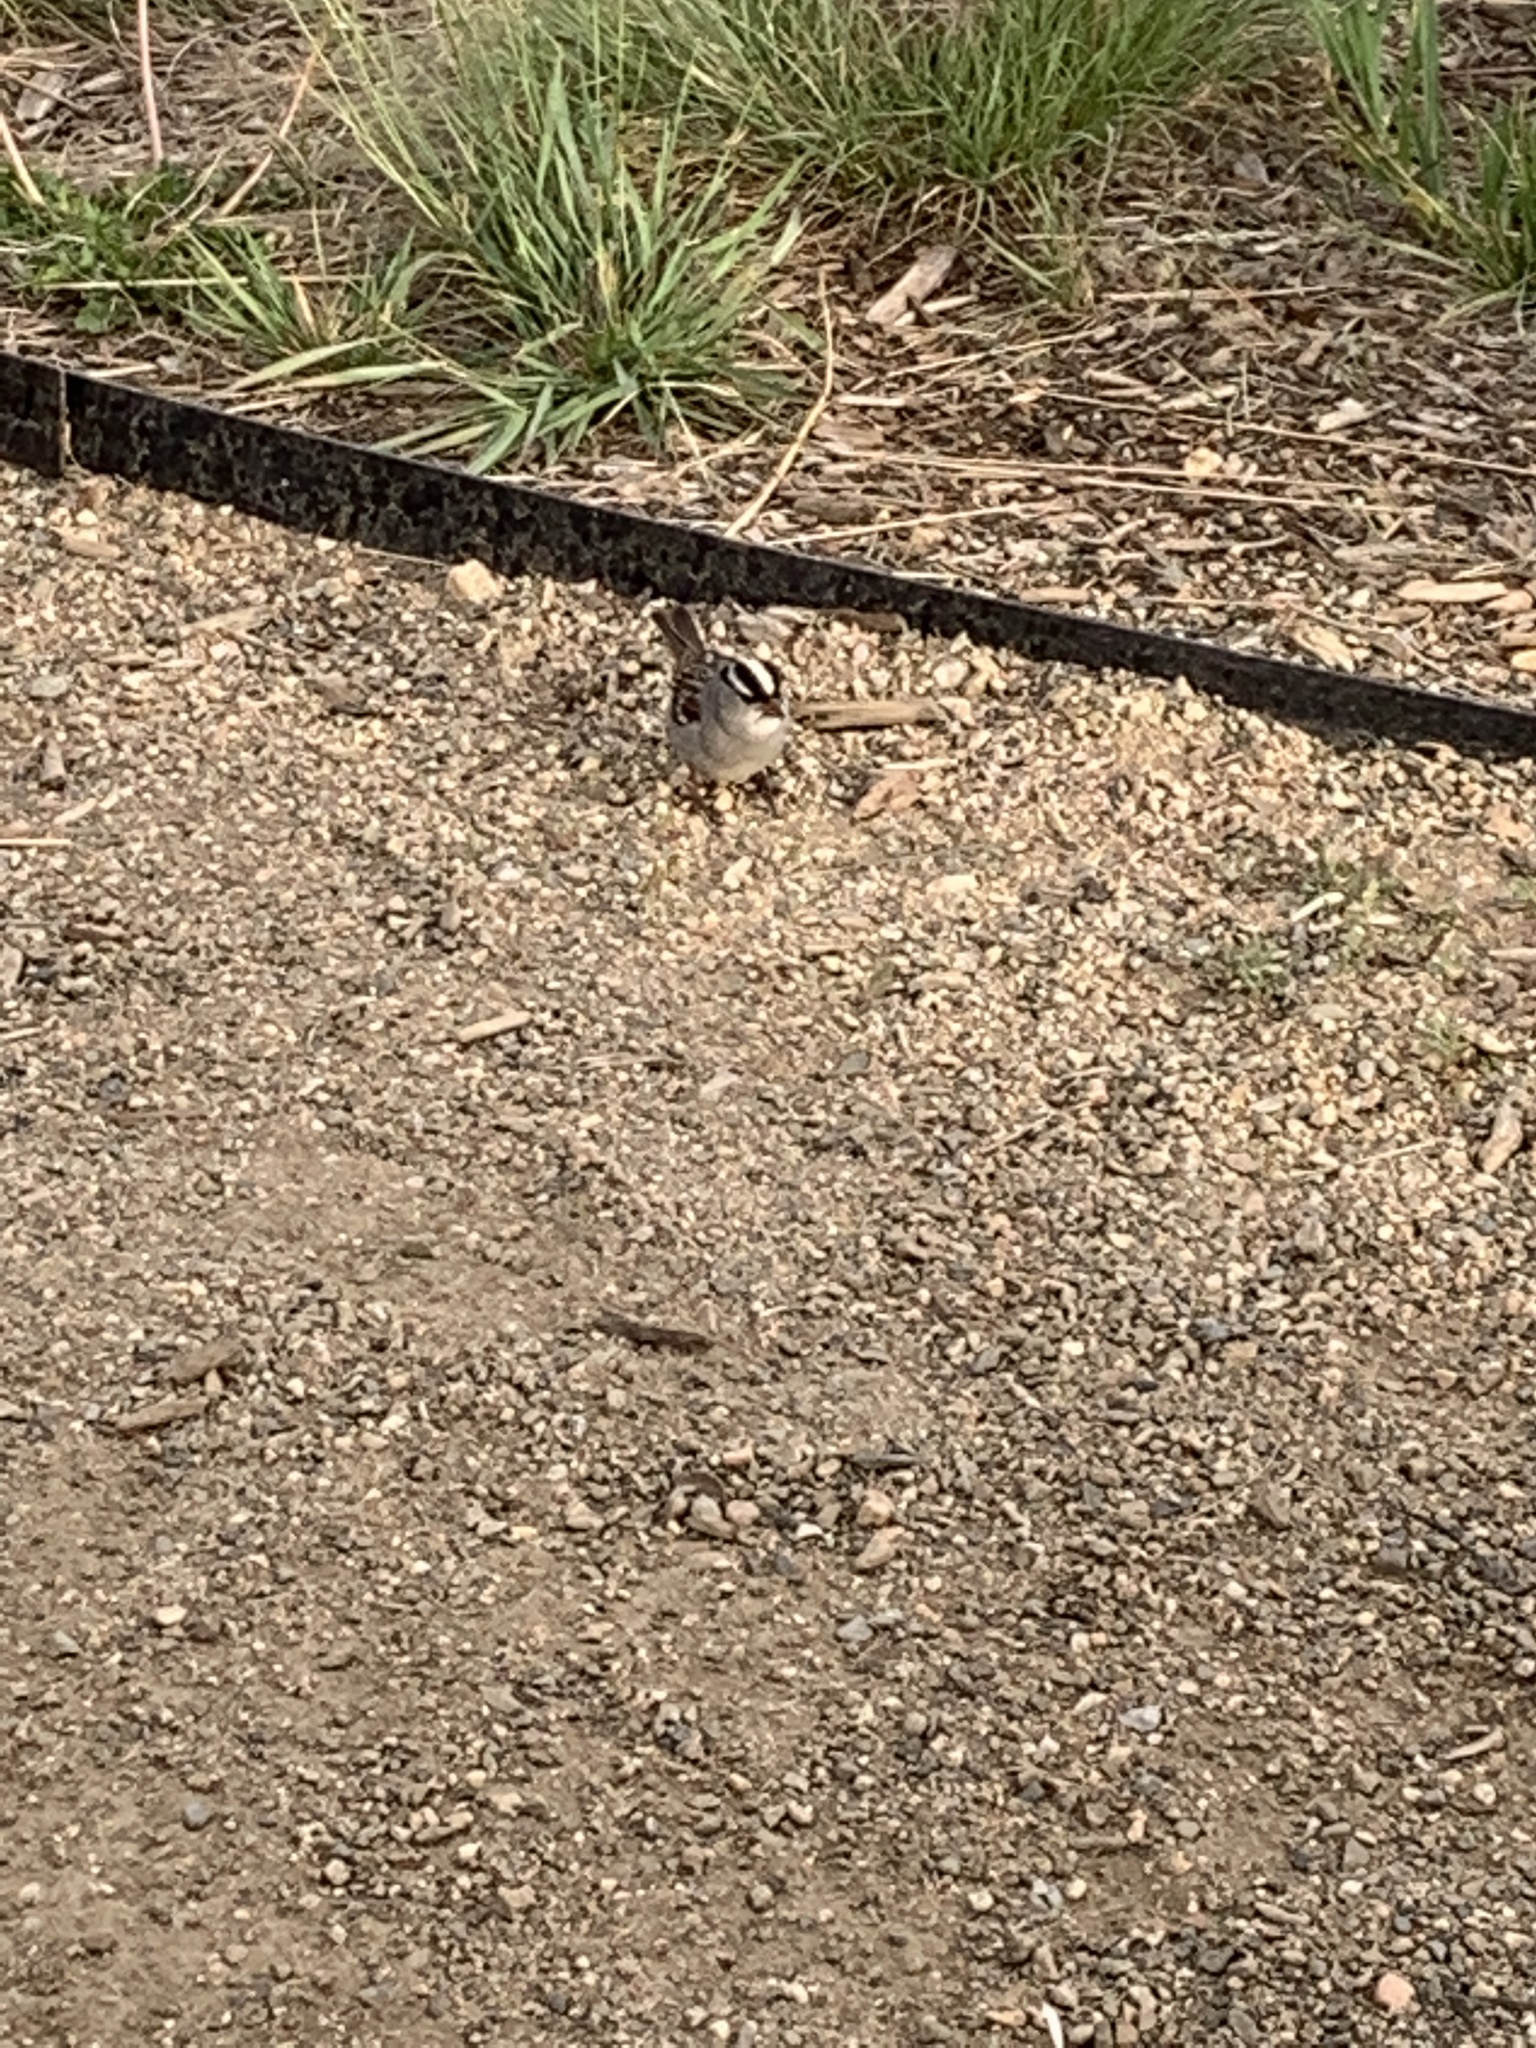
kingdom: Animalia
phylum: Chordata
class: Aves
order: Passeriformes
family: Passerellidae
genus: Zonotrichia
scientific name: Zonotrichia leucophrys
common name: White-crowned sparrow
